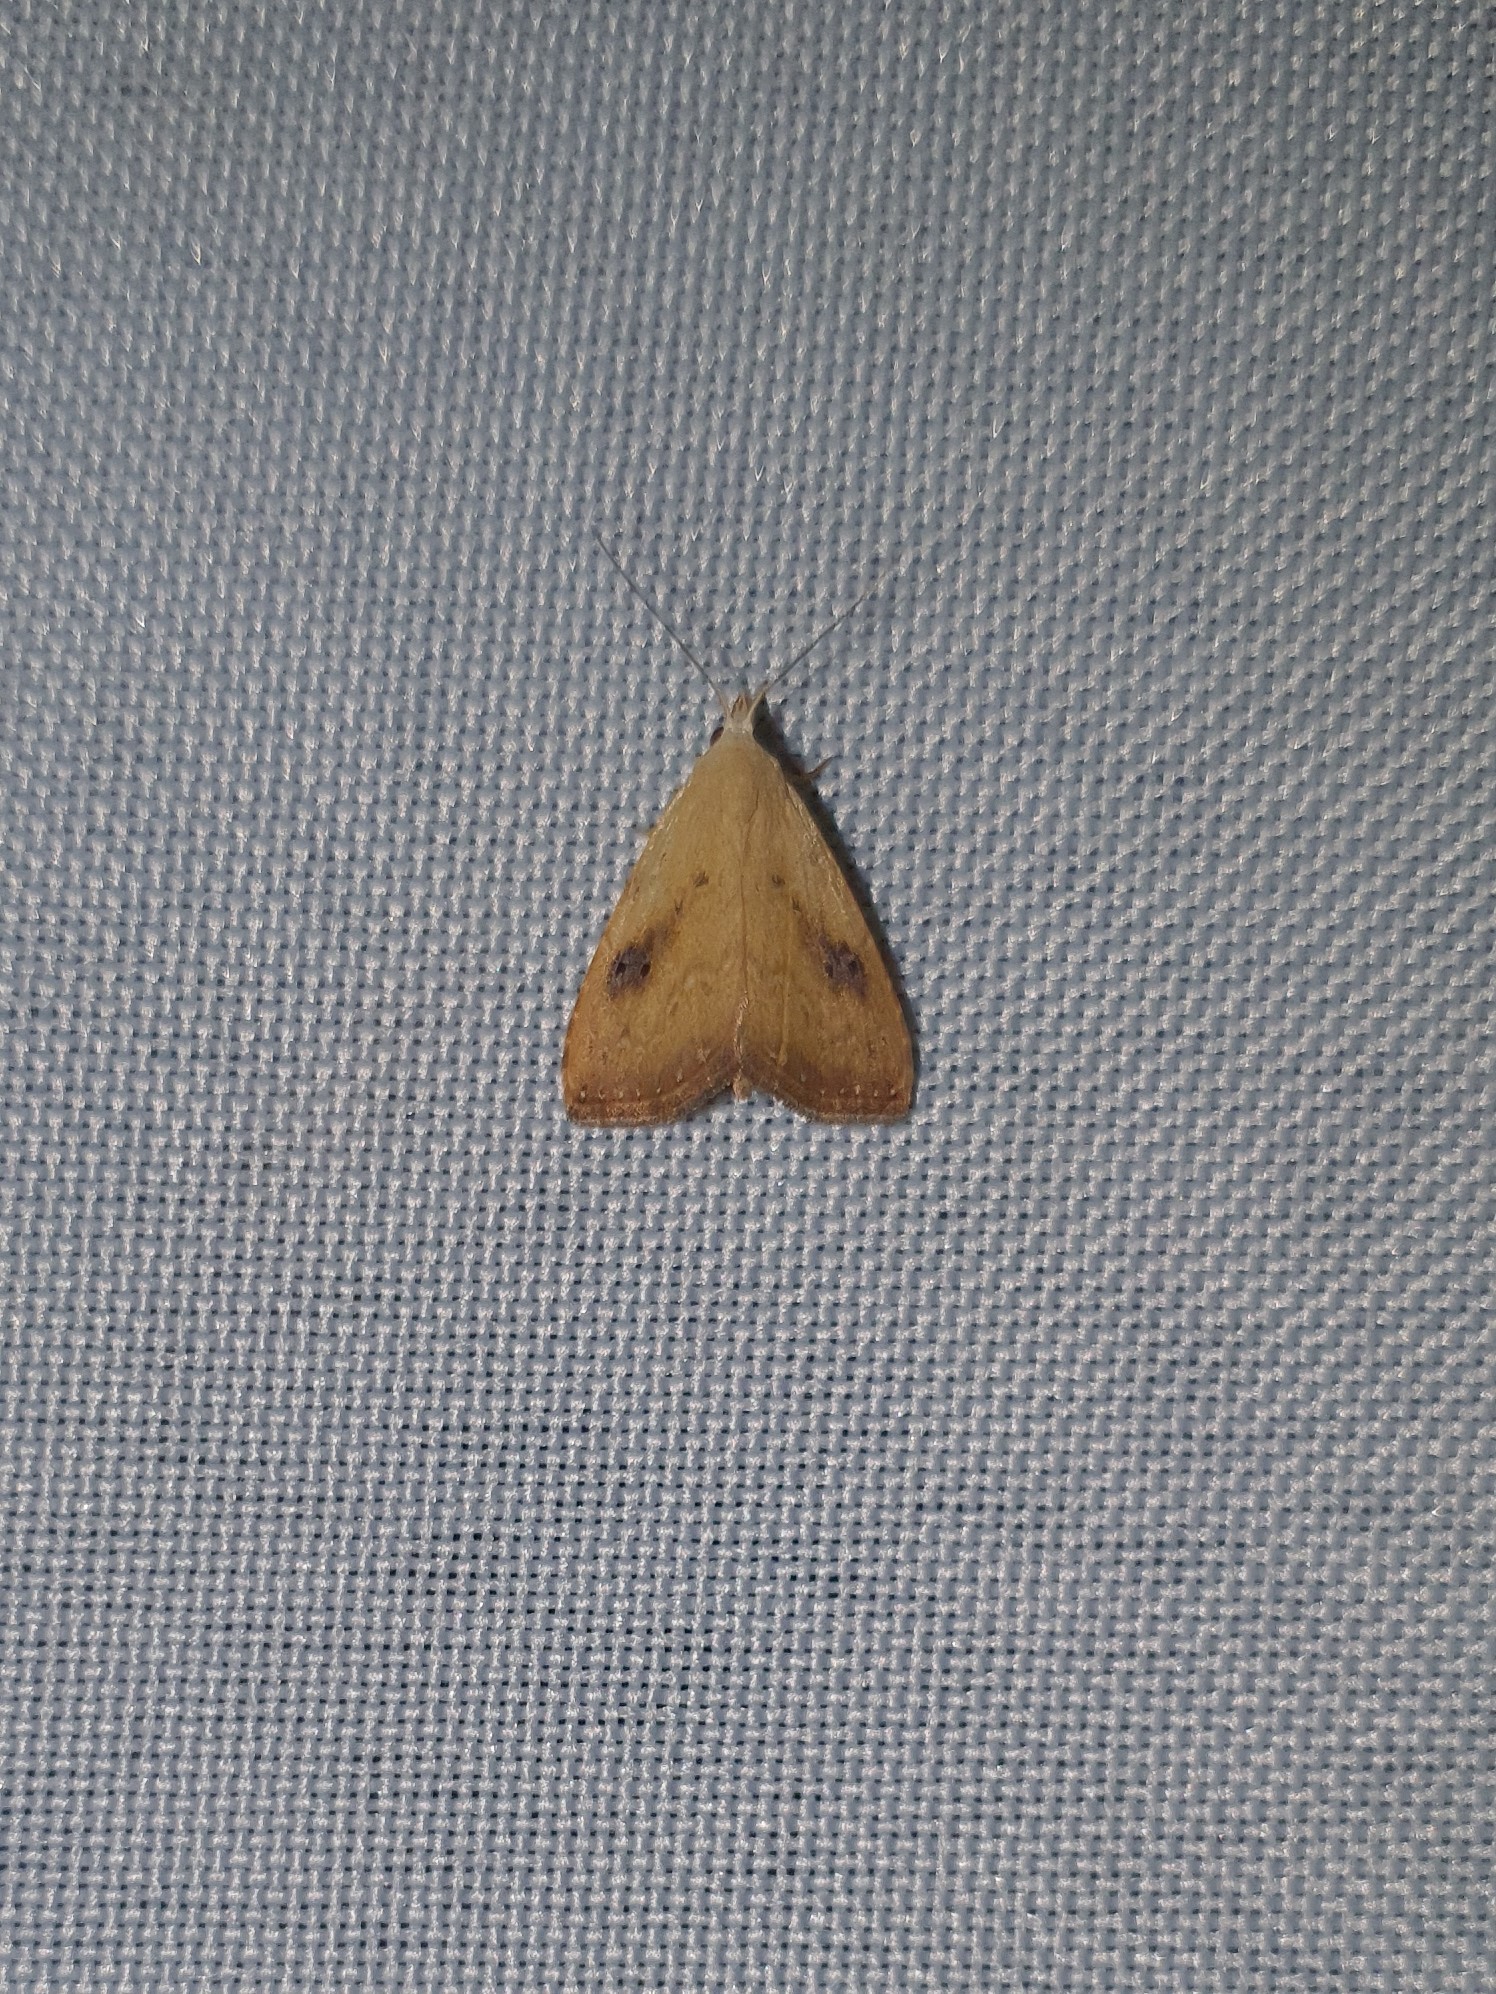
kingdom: Animalia
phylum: Arthropoda
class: Insecta
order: Lepidoptera
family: Erebidae
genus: Rivula
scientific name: Rivula sericealis
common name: Straw dot
